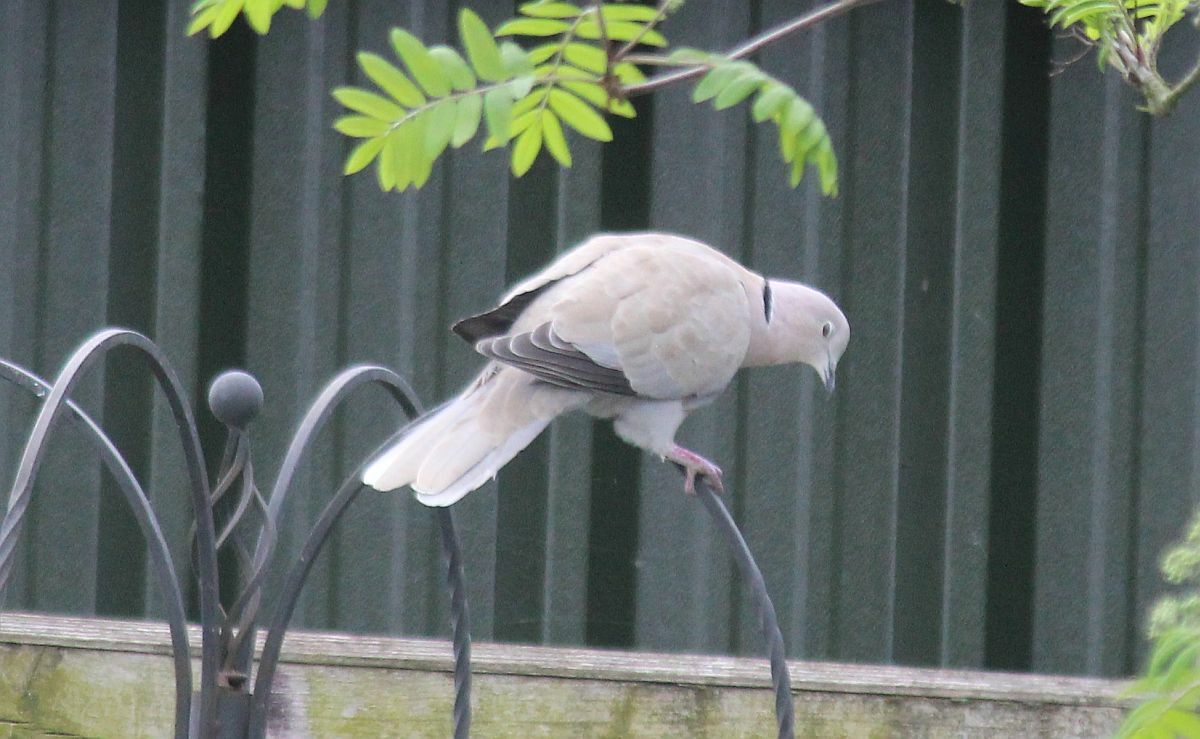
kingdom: Animalia
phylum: Chordata
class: Aves
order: Columbiformes
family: Columbidae
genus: Streptopelia
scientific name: Streptopelia decaocto
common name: Eurasian collared dove
